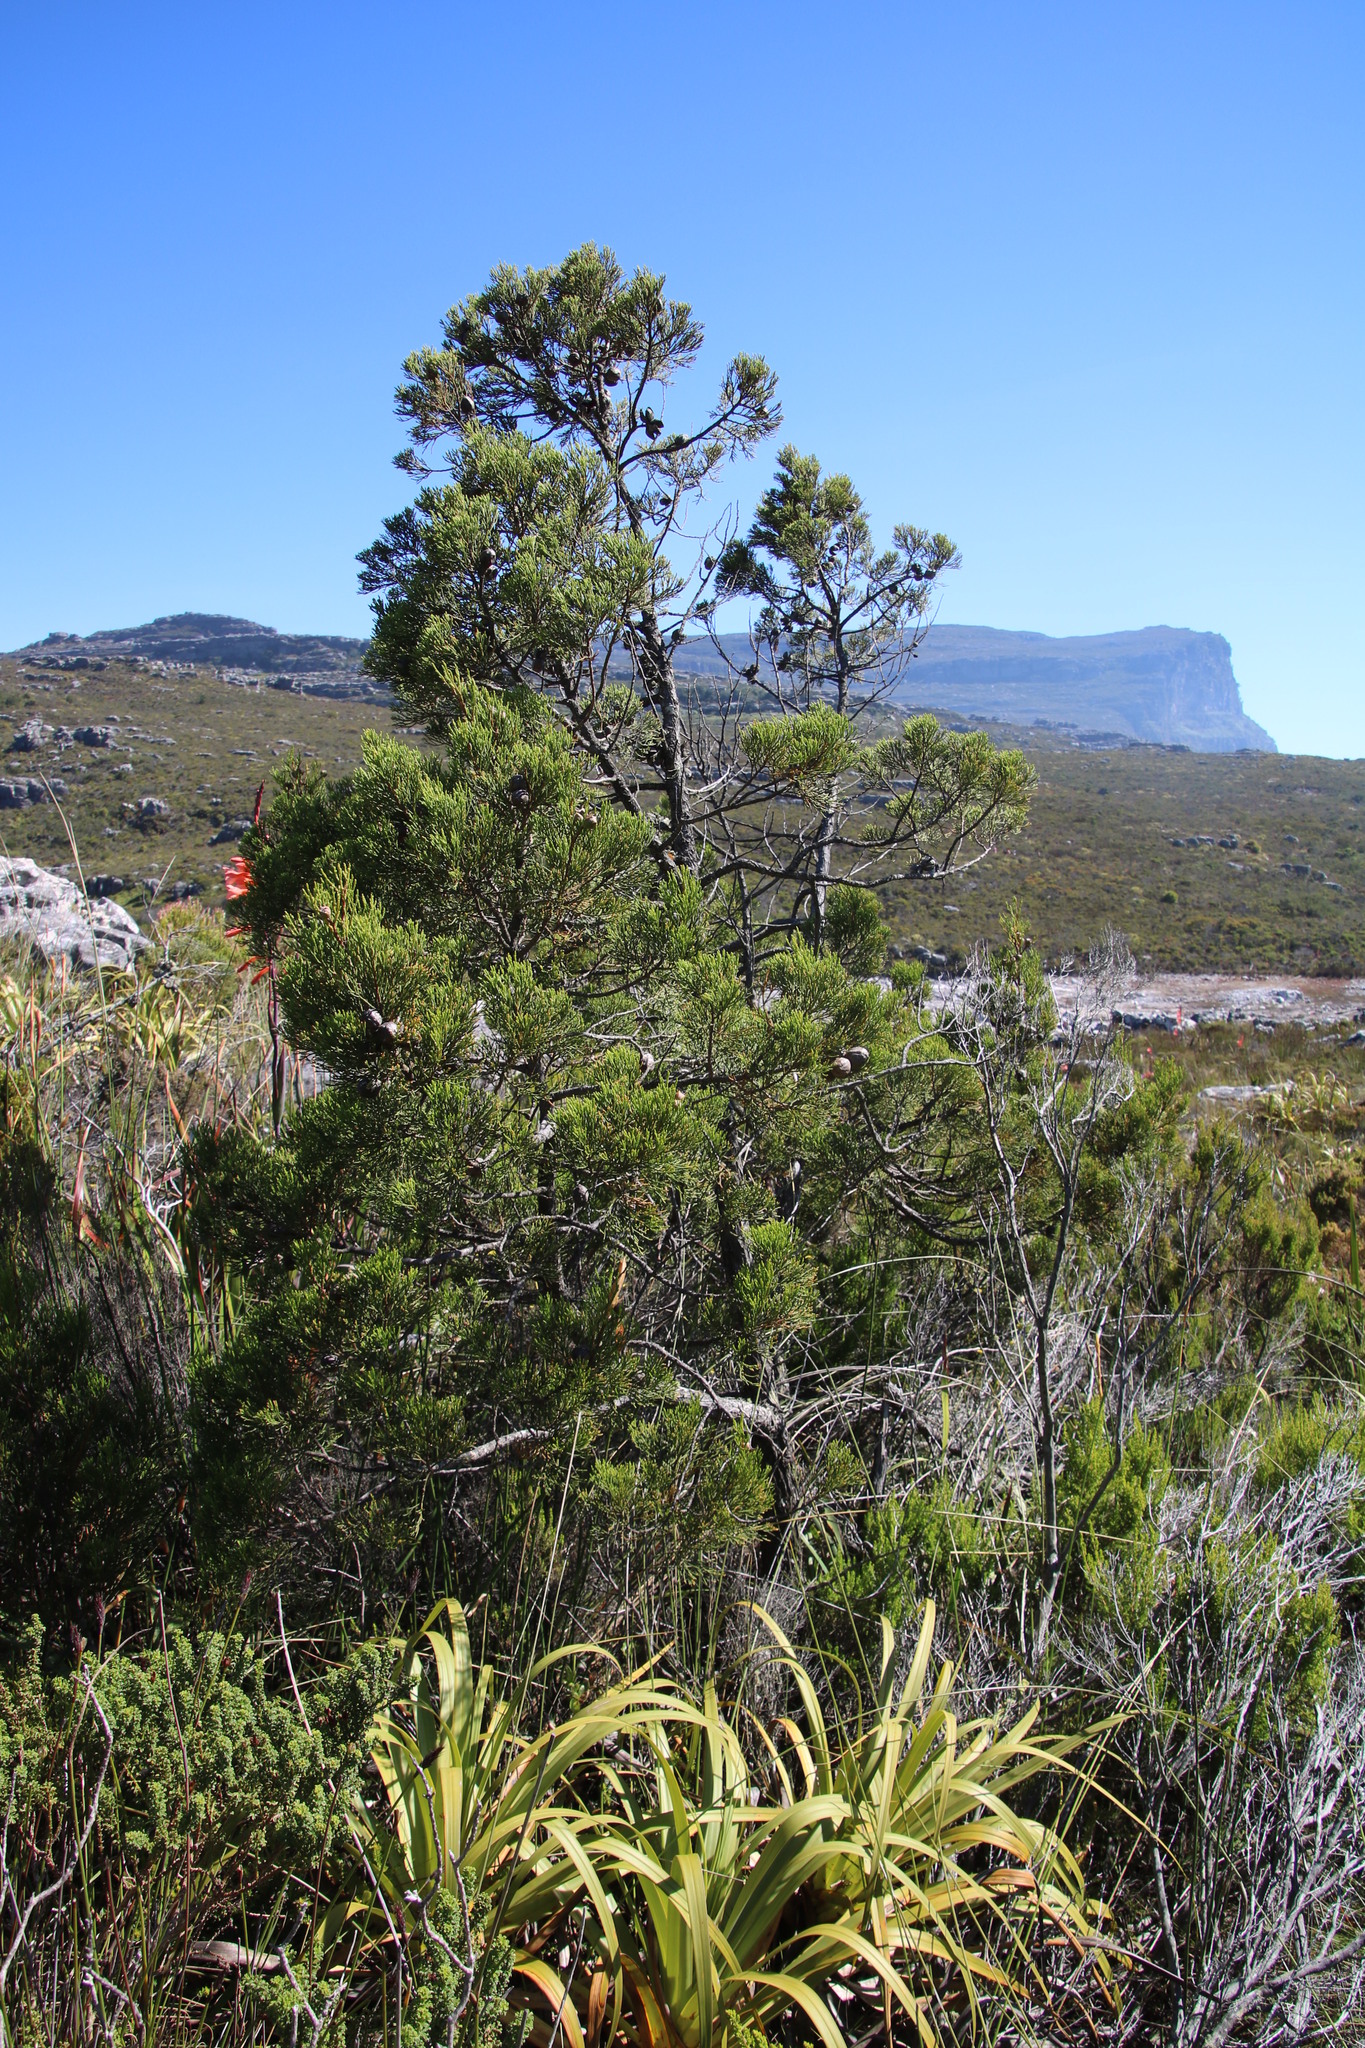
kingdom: Plantae
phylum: Tracheophyta
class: Pinopsida
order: Pinales
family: Cupressaceae
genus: Widdringtonia
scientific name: Widdringtonia nodiflora
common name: Cape cypress
